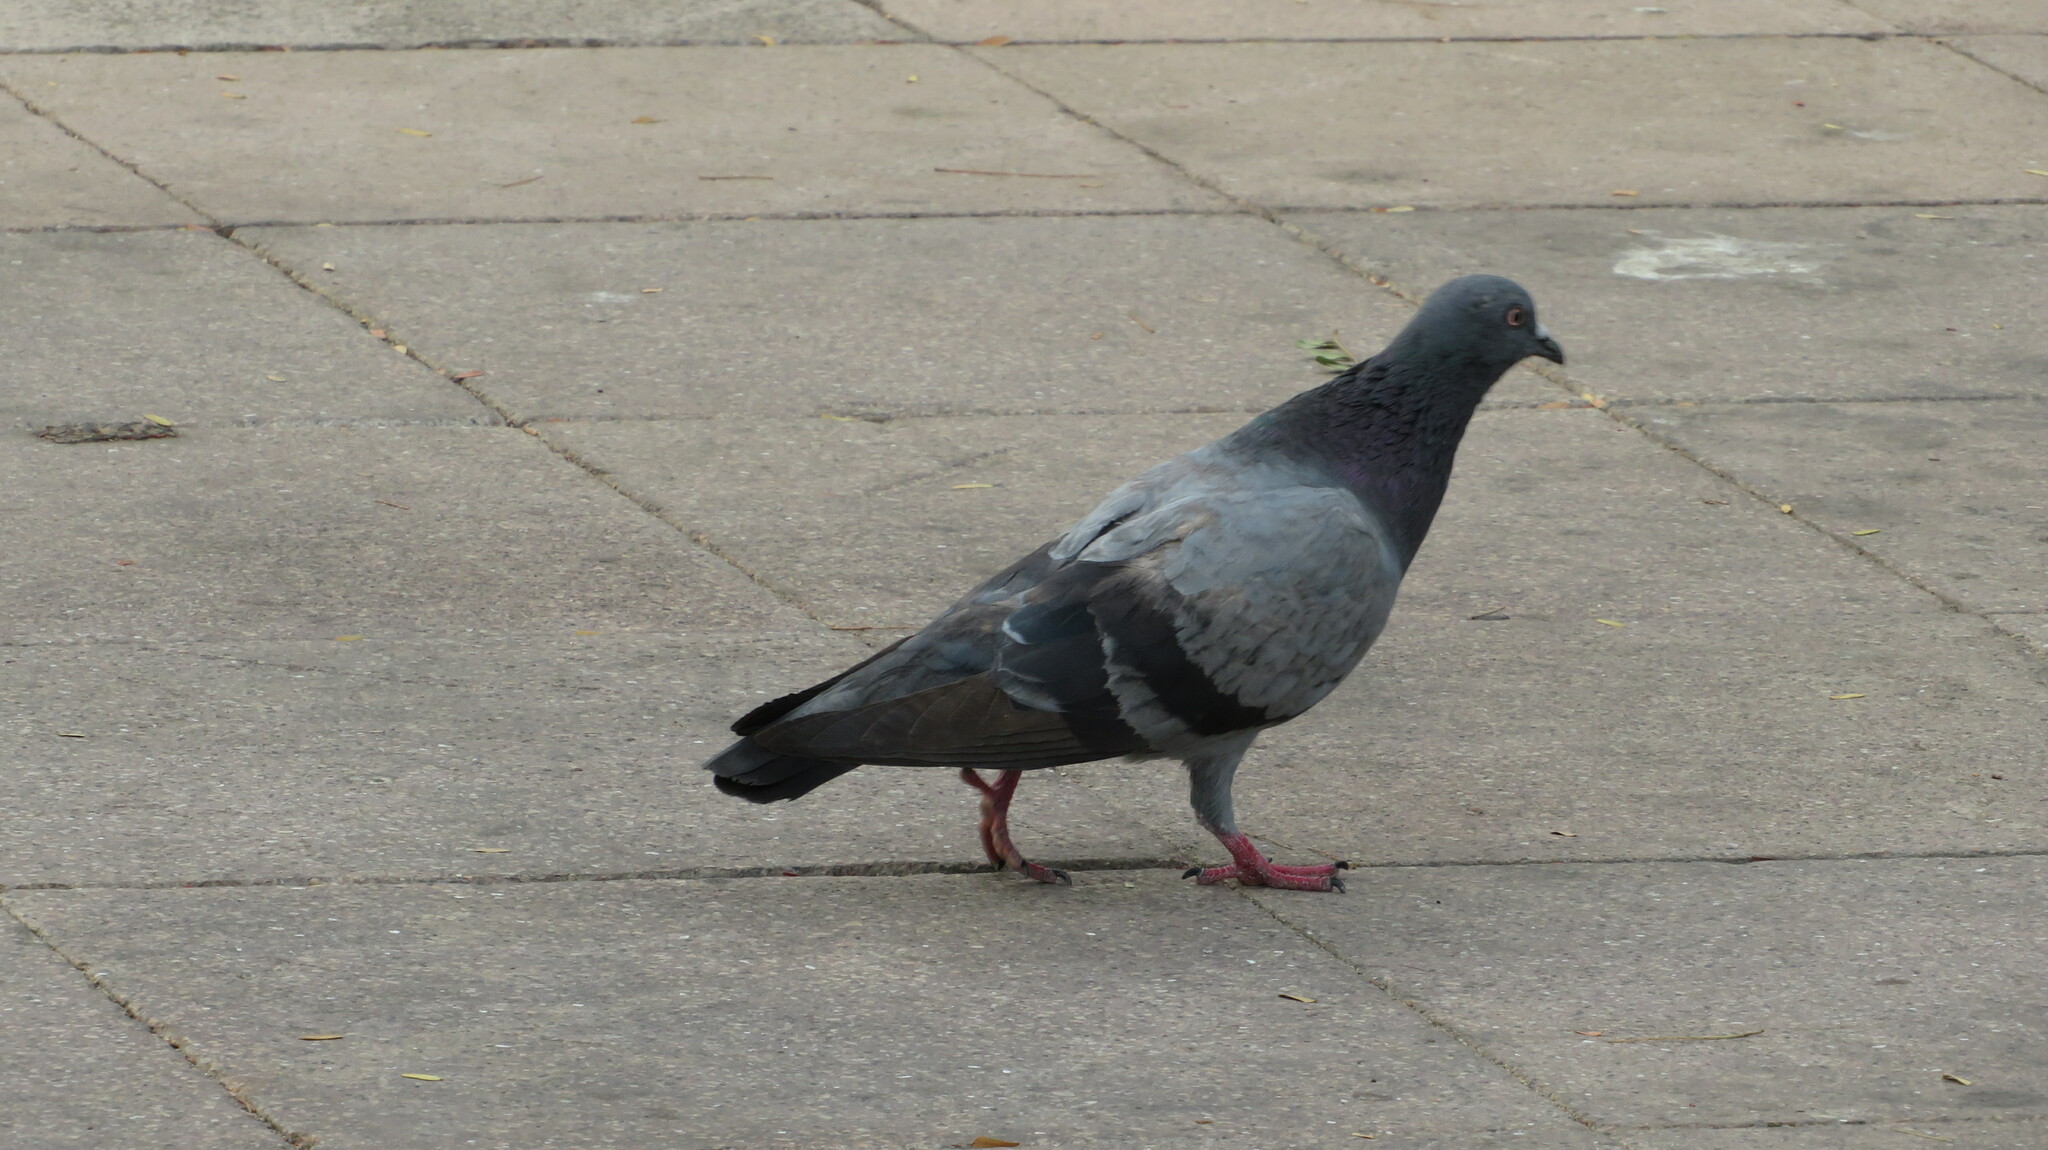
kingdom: Animalia
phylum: Chordata
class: Aves
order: Columbiformes
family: Columbidae
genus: Columba
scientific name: Columba livia
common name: Rock pigeon
